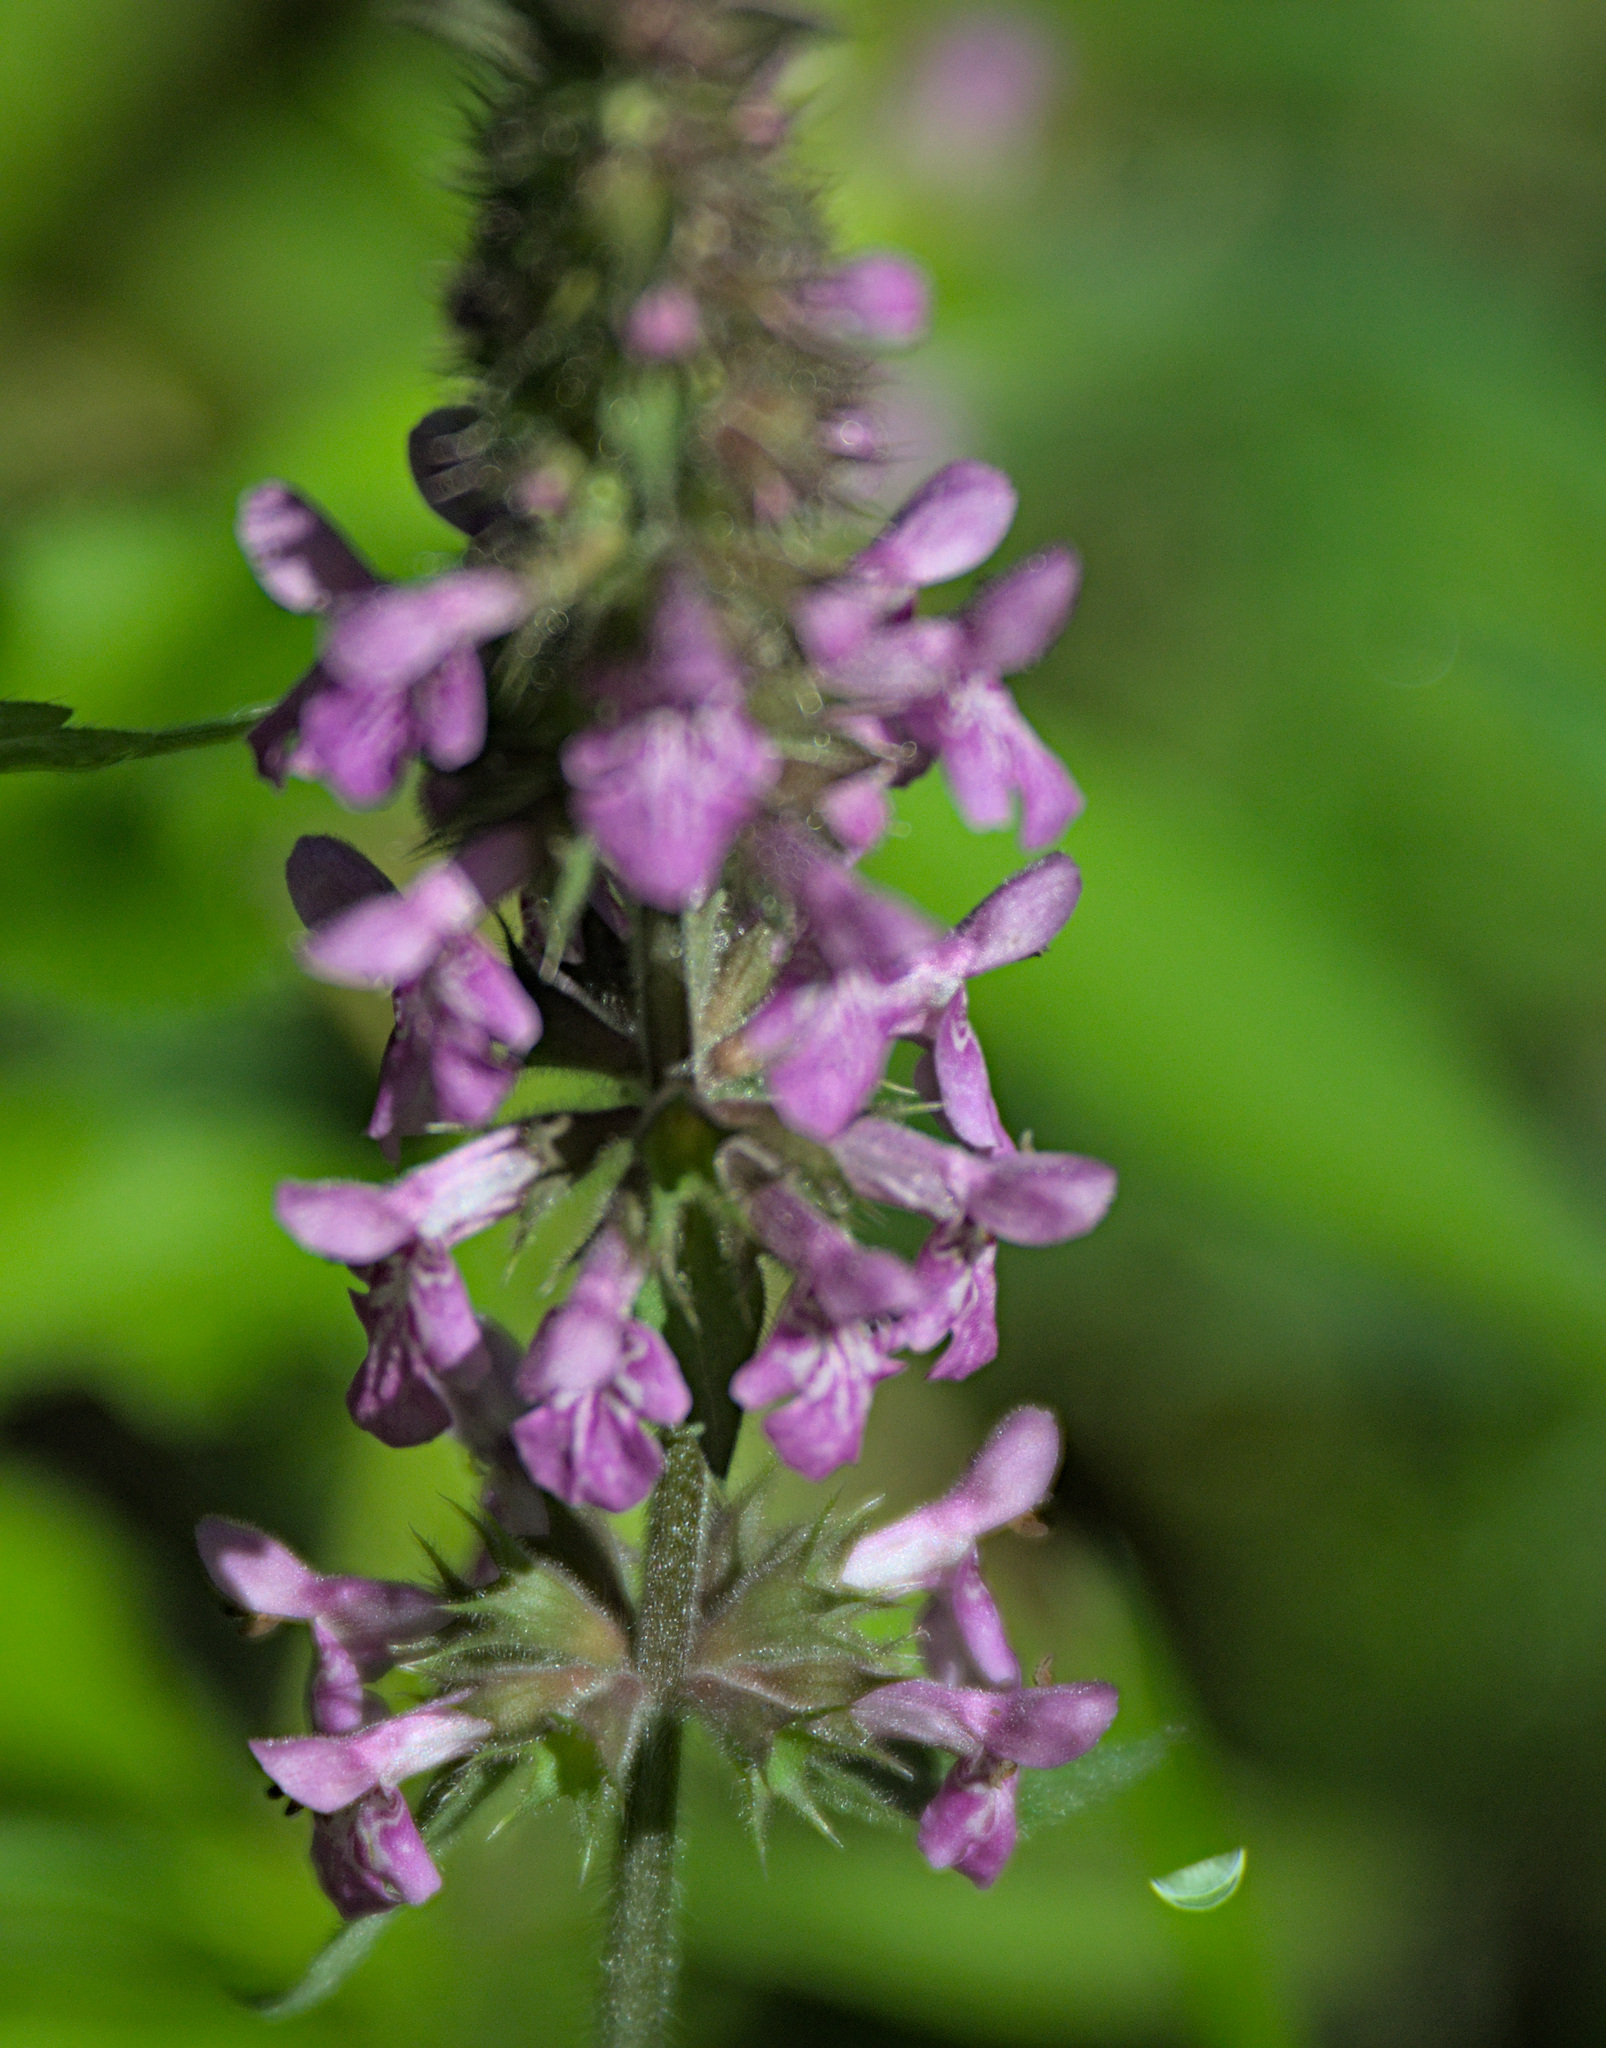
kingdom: Plantae
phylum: Tracheophyta
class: Magnoliopsida
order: Lamiales
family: Lamiaceae
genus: Stachys
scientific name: Stachys palustris
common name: Marsh woundwort
